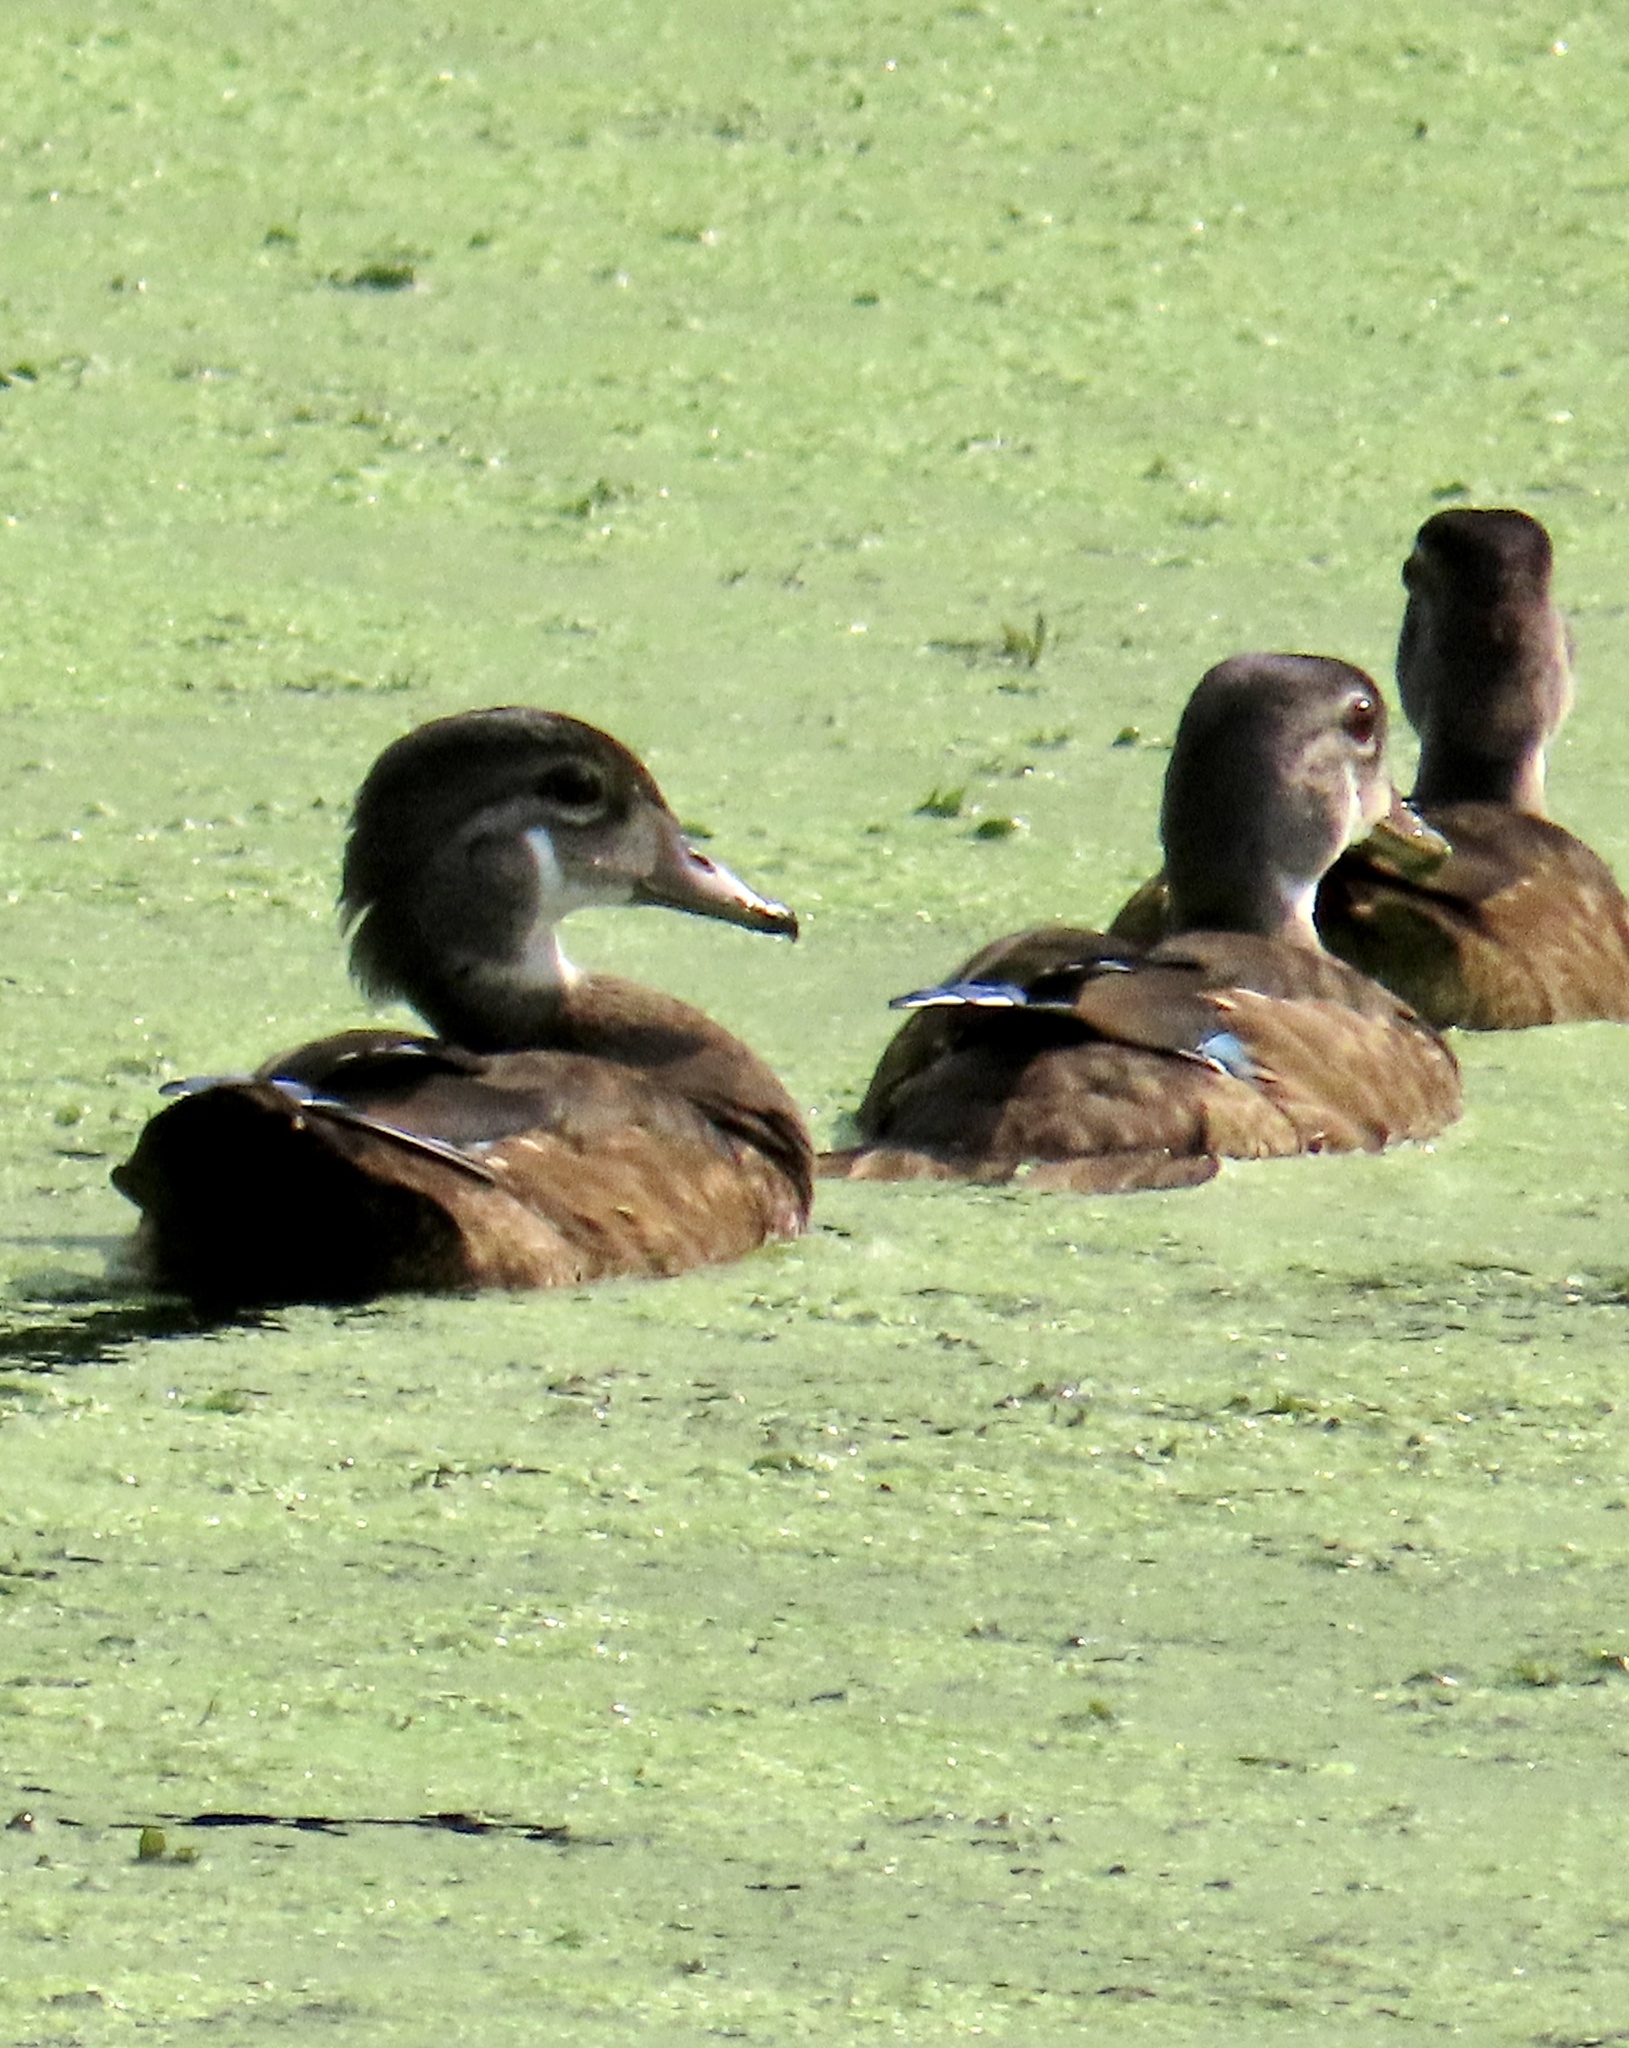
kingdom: Animalia
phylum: Chordata
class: Aves
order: Anseriformes
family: Anatidae
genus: Aix
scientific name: Aix sponsa
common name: Wood duck
